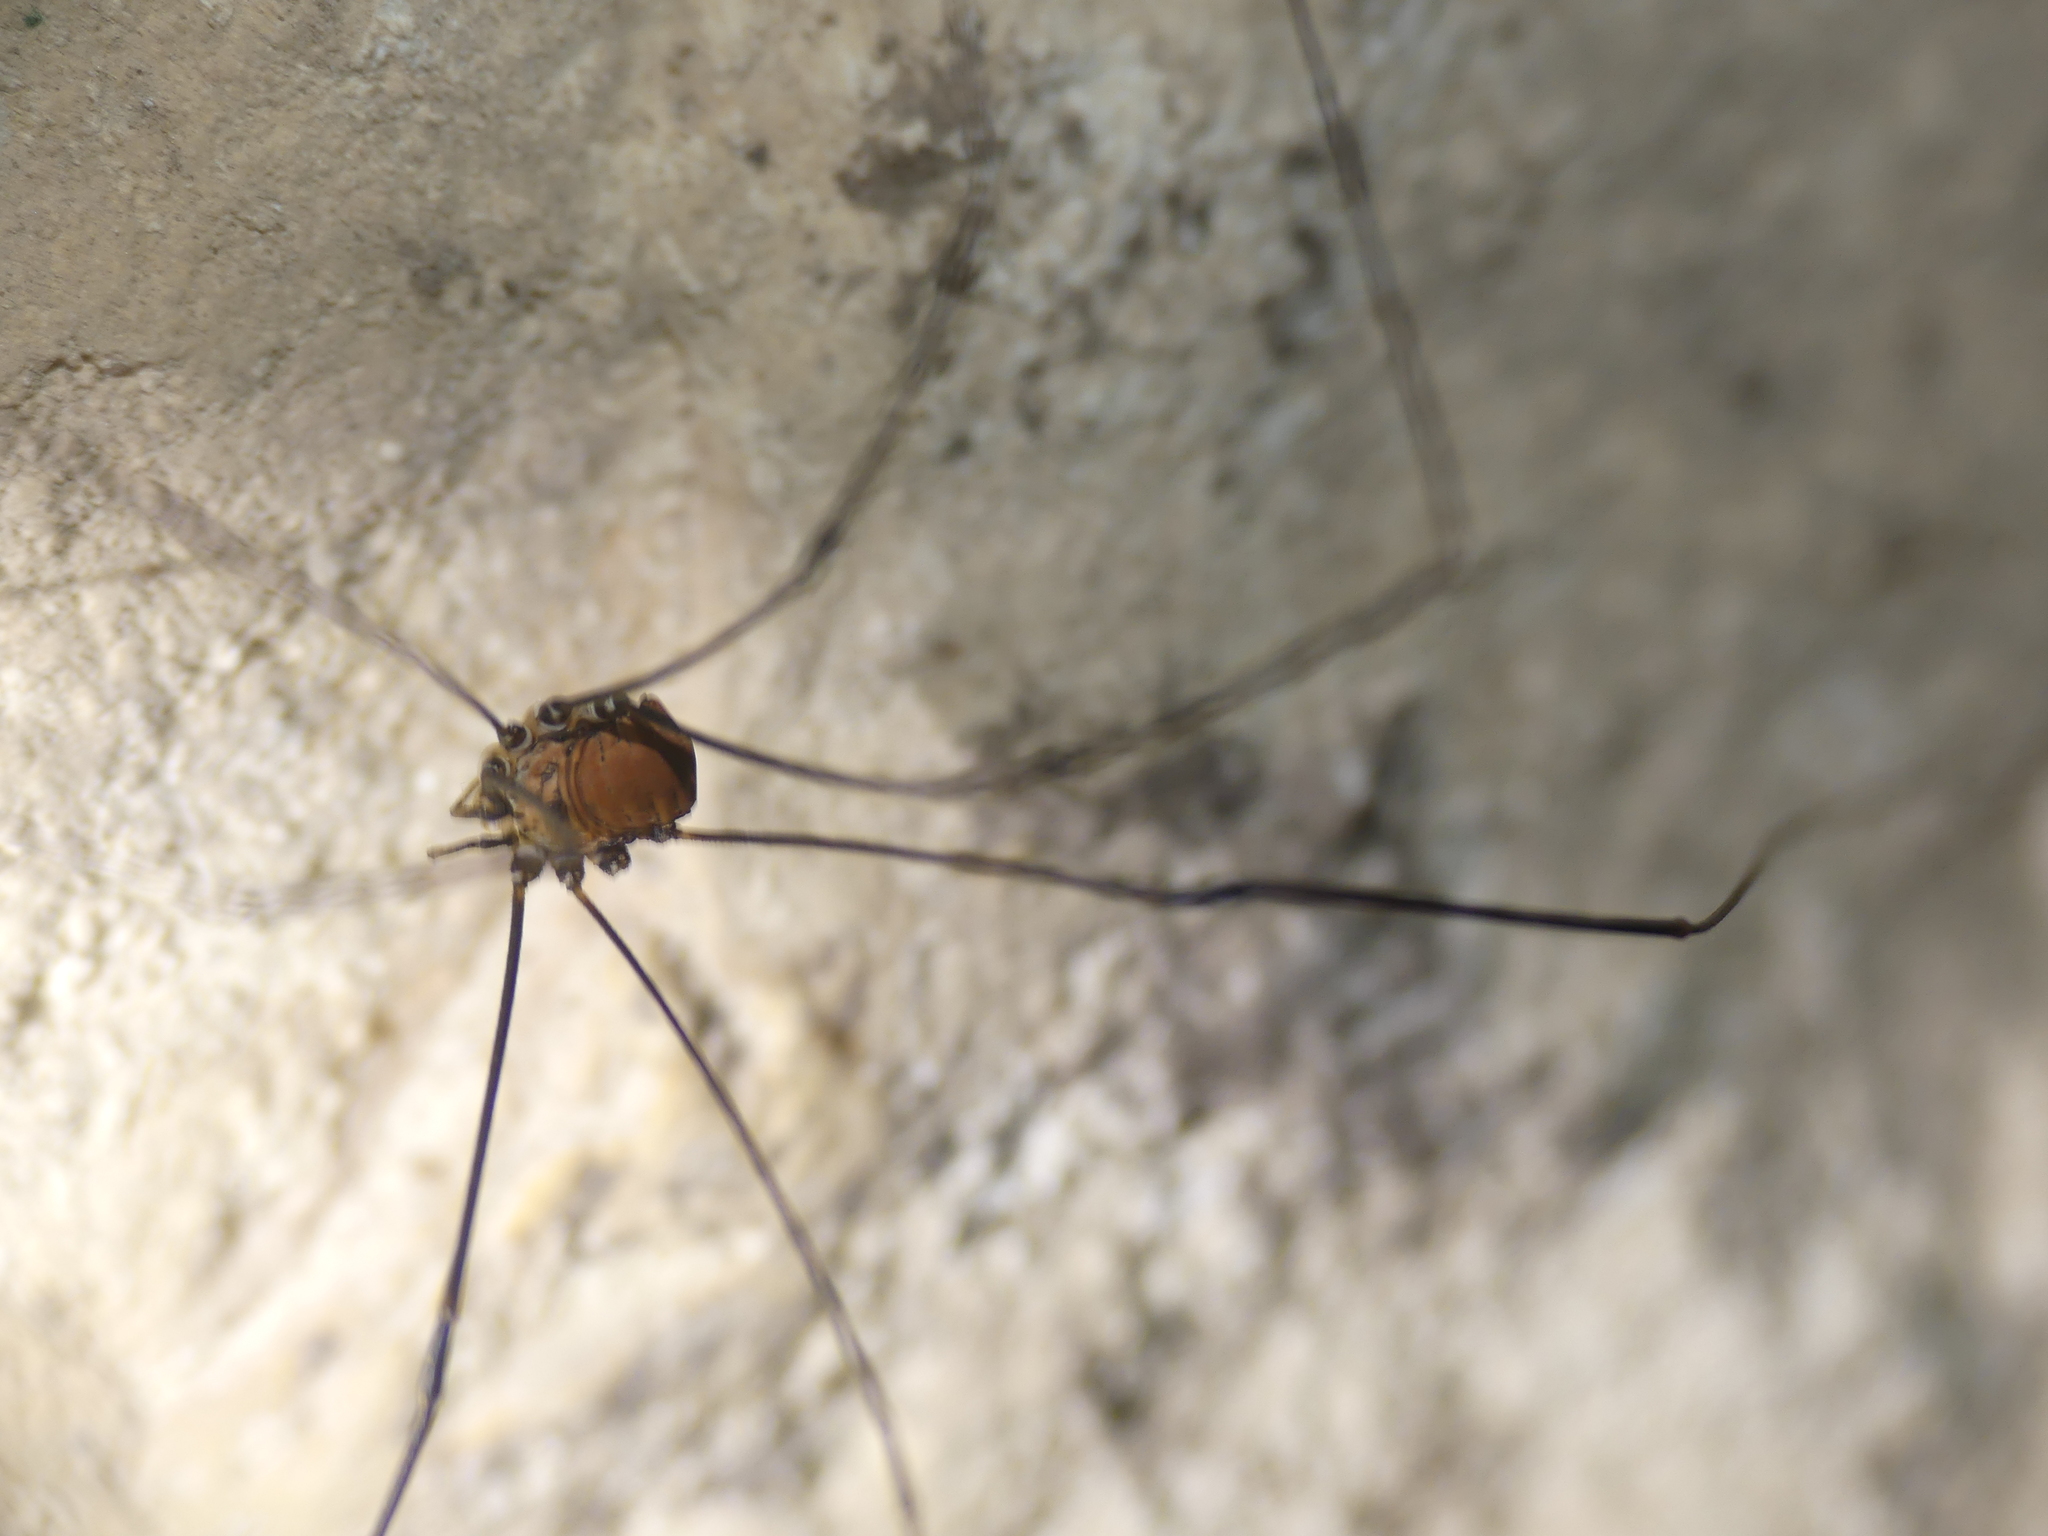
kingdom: Animalia
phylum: Arthropoda
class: Arachnida
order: Opiliones
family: Sclerosomatidae
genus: Leiobunum
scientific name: Leiobunum limbatum
